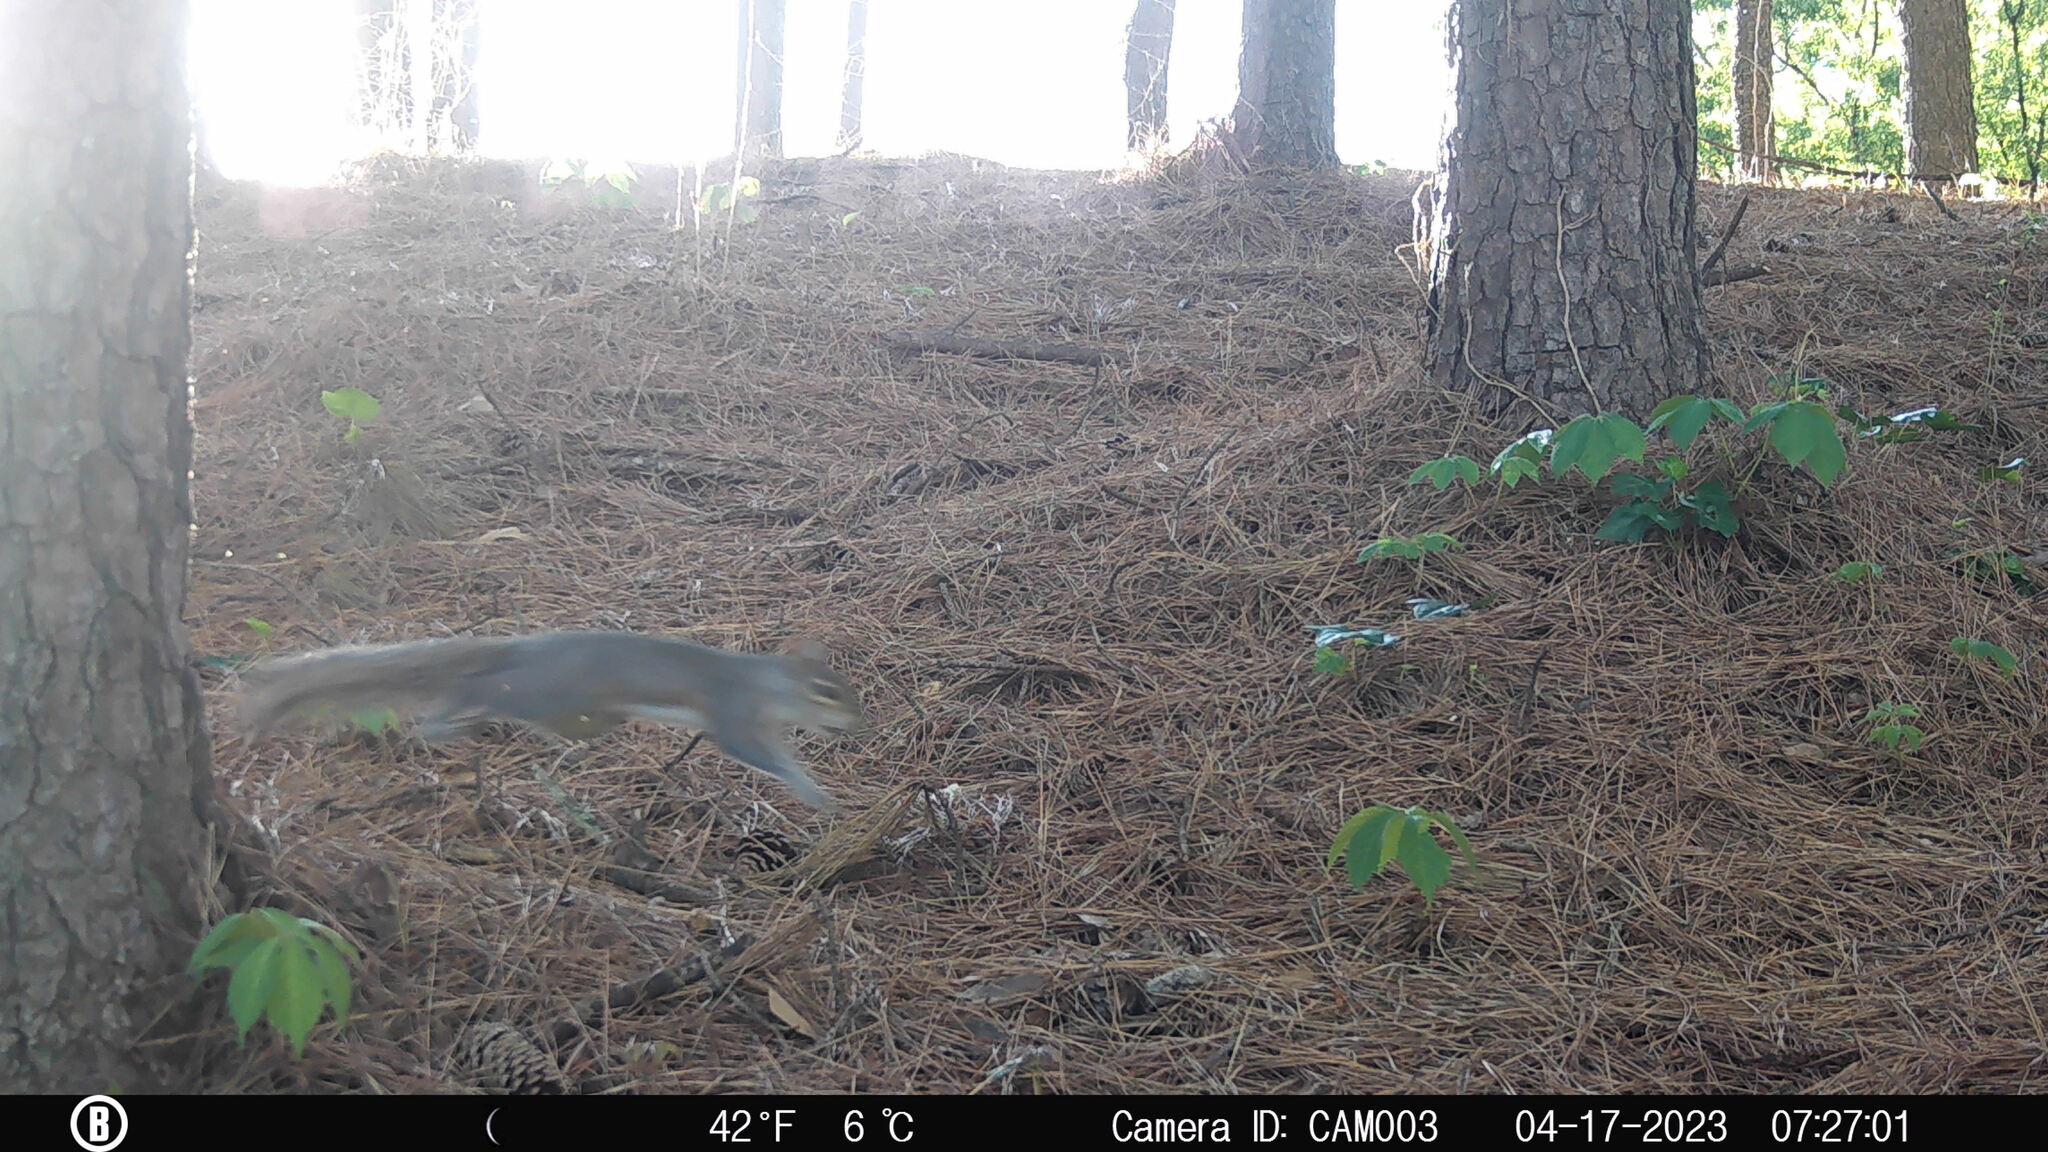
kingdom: Animalia
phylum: Chordata
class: Mammalia
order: Rodentia
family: Sciuridae
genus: Sciurus
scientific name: Sciurus carolinensis
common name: Eastern gray squirrel
